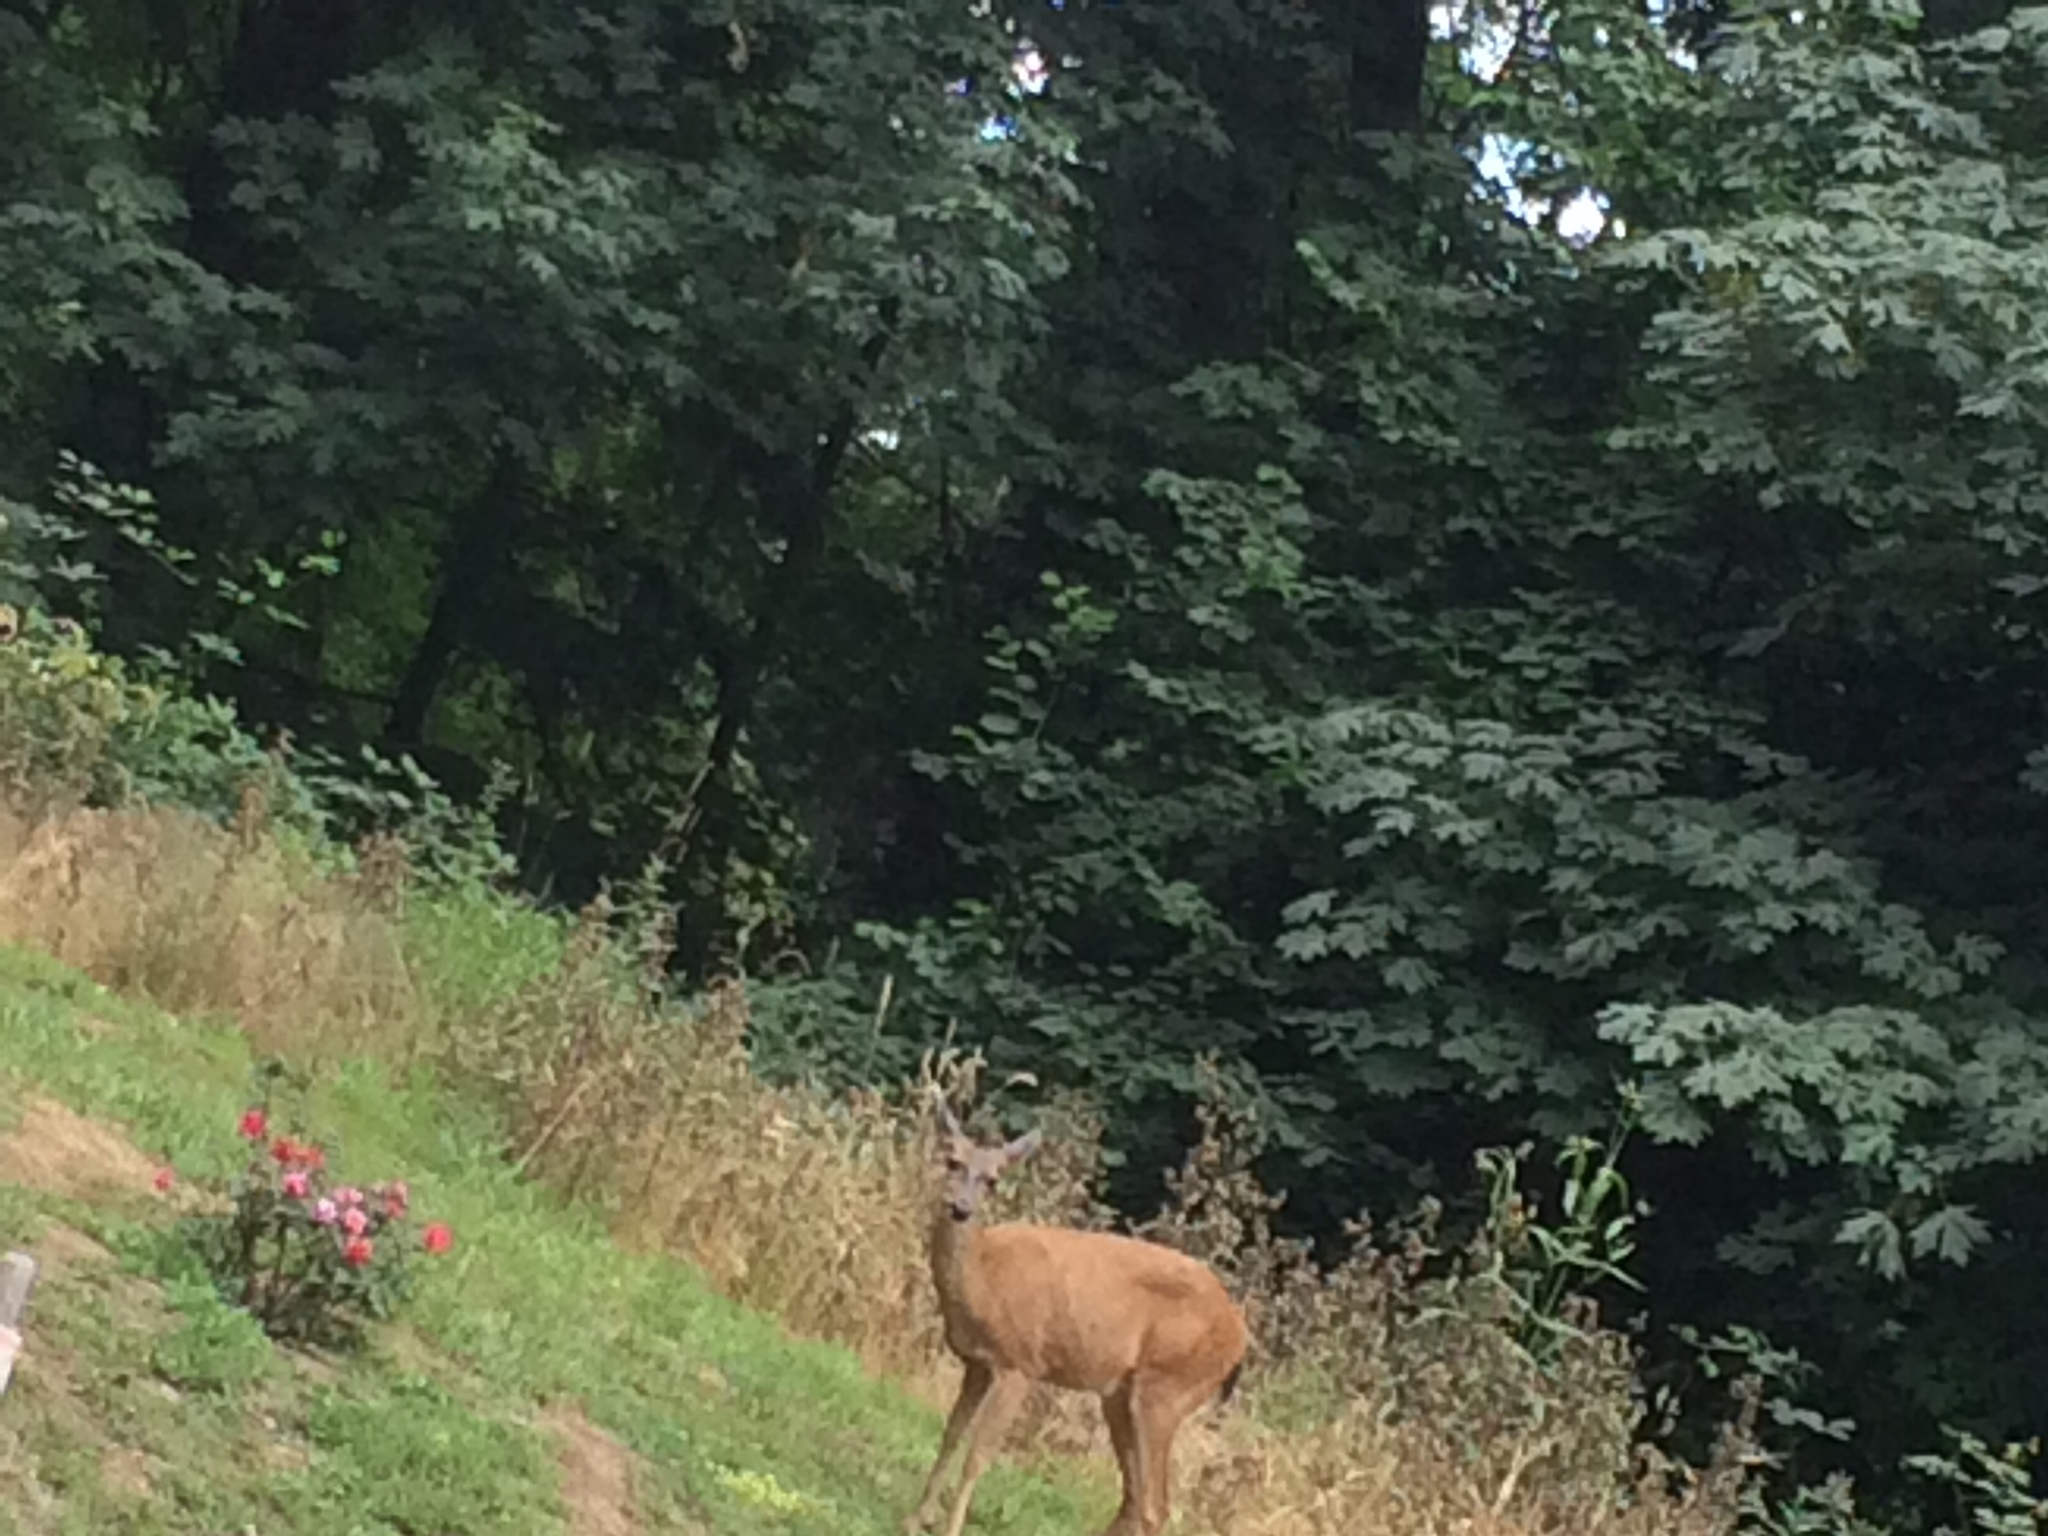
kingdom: Animalia
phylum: Chordata
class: Mammalia
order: Artiodactyla
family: Cervidae
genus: Odocoileus
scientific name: Odocoileus hemionus
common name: Mule deer
